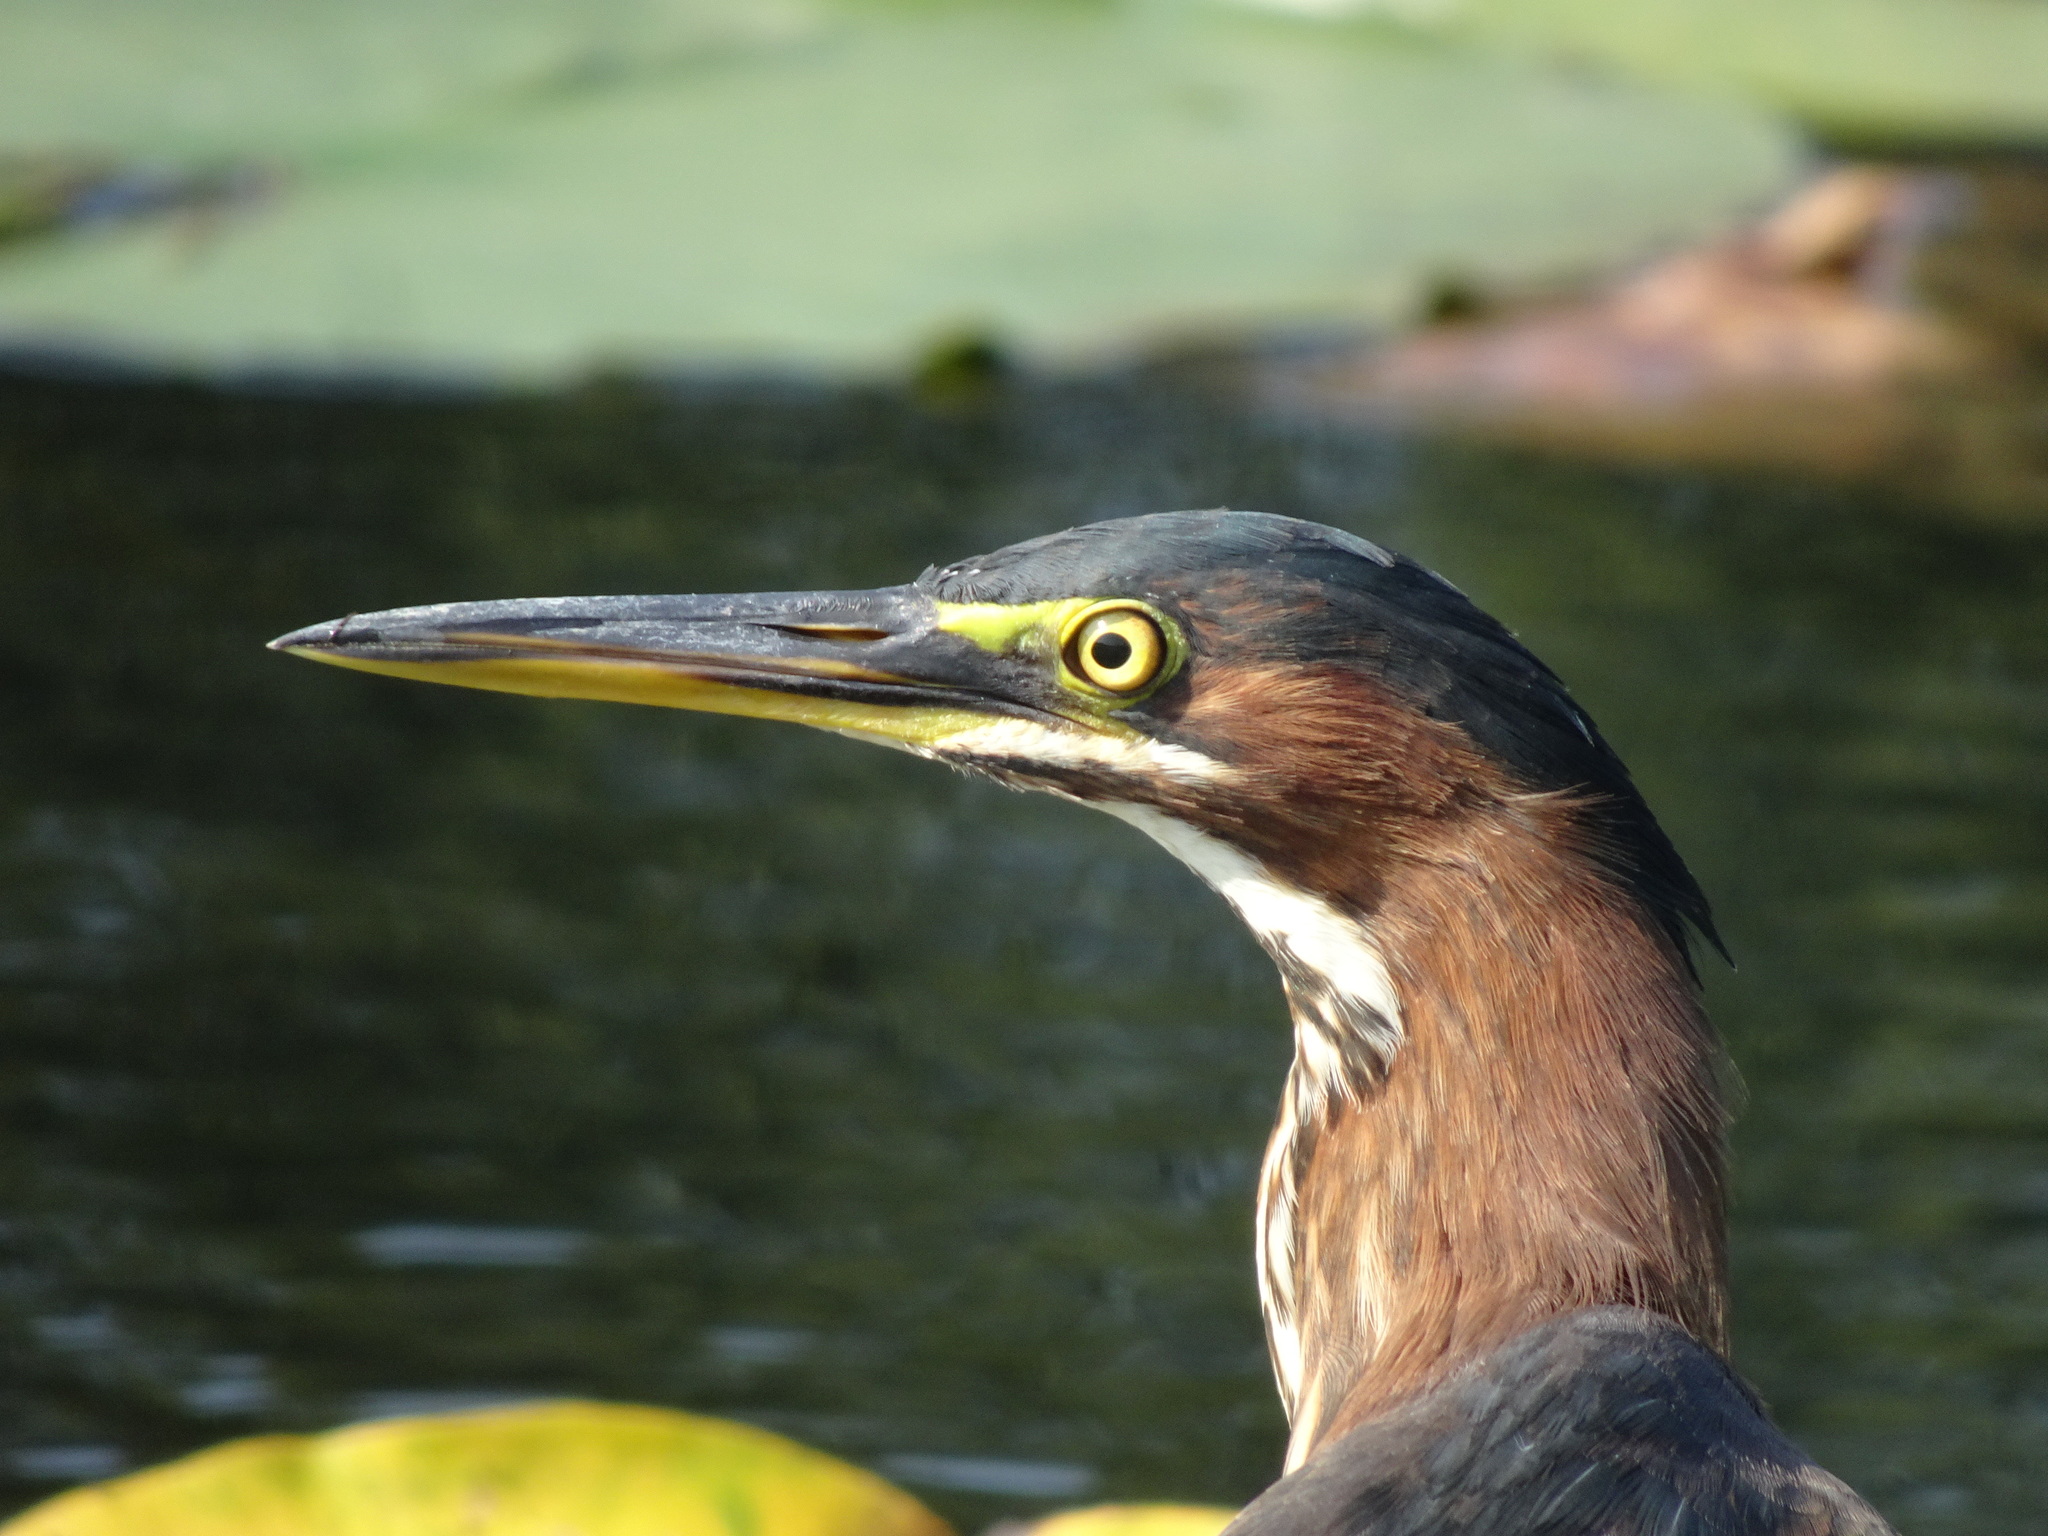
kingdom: Animalia
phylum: Chordata
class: Aves
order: Pelecaniformes
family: Ardeidae
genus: Butorides
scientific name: Butorides virescens
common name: Green heron
